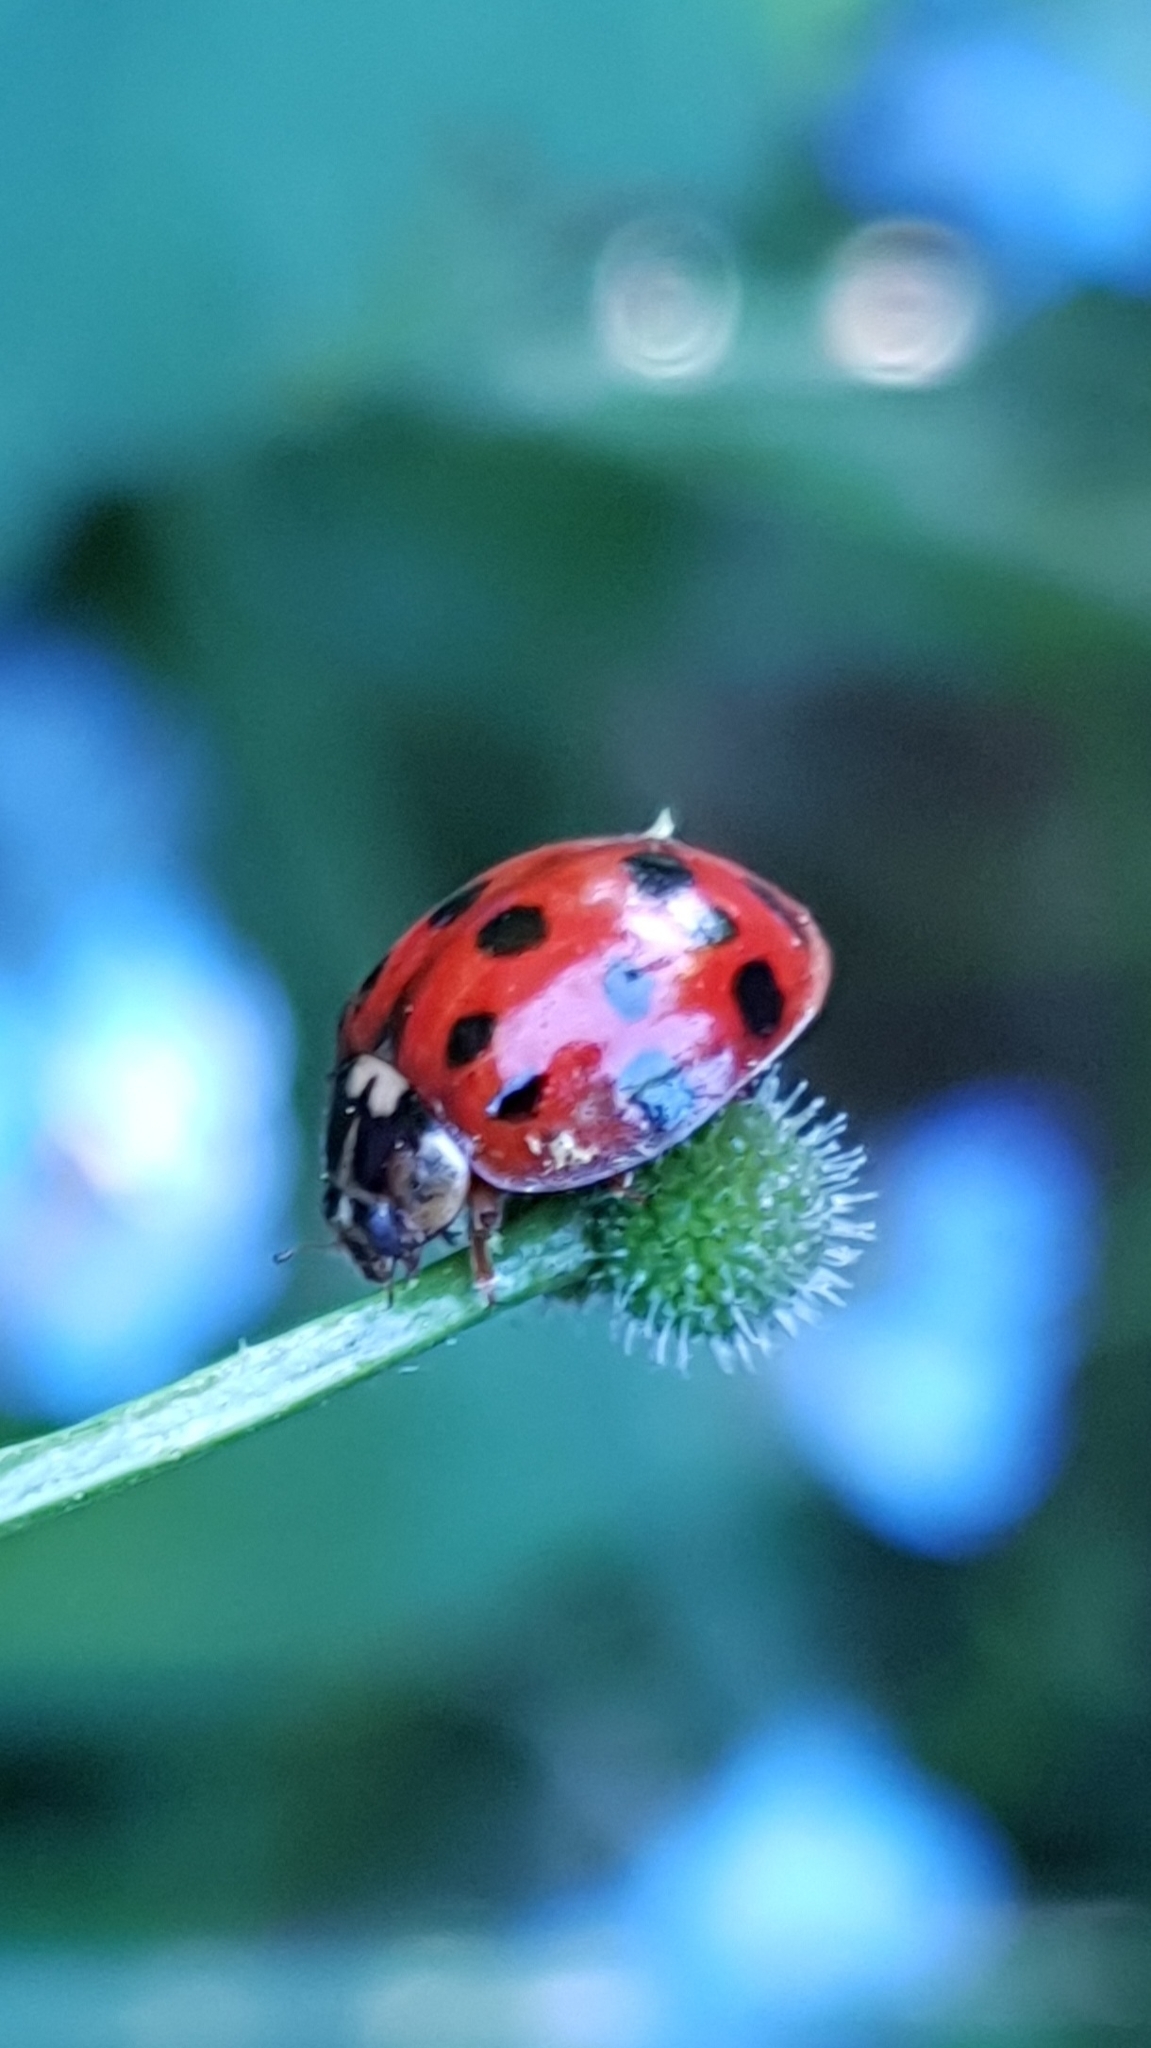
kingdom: Fungi
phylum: Ascomycota
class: Laboulbeniomycetes
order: Laboulbeniales
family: Laboulbeniaceae
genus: Hesperomyces
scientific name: Hesperomyces harmoniae
